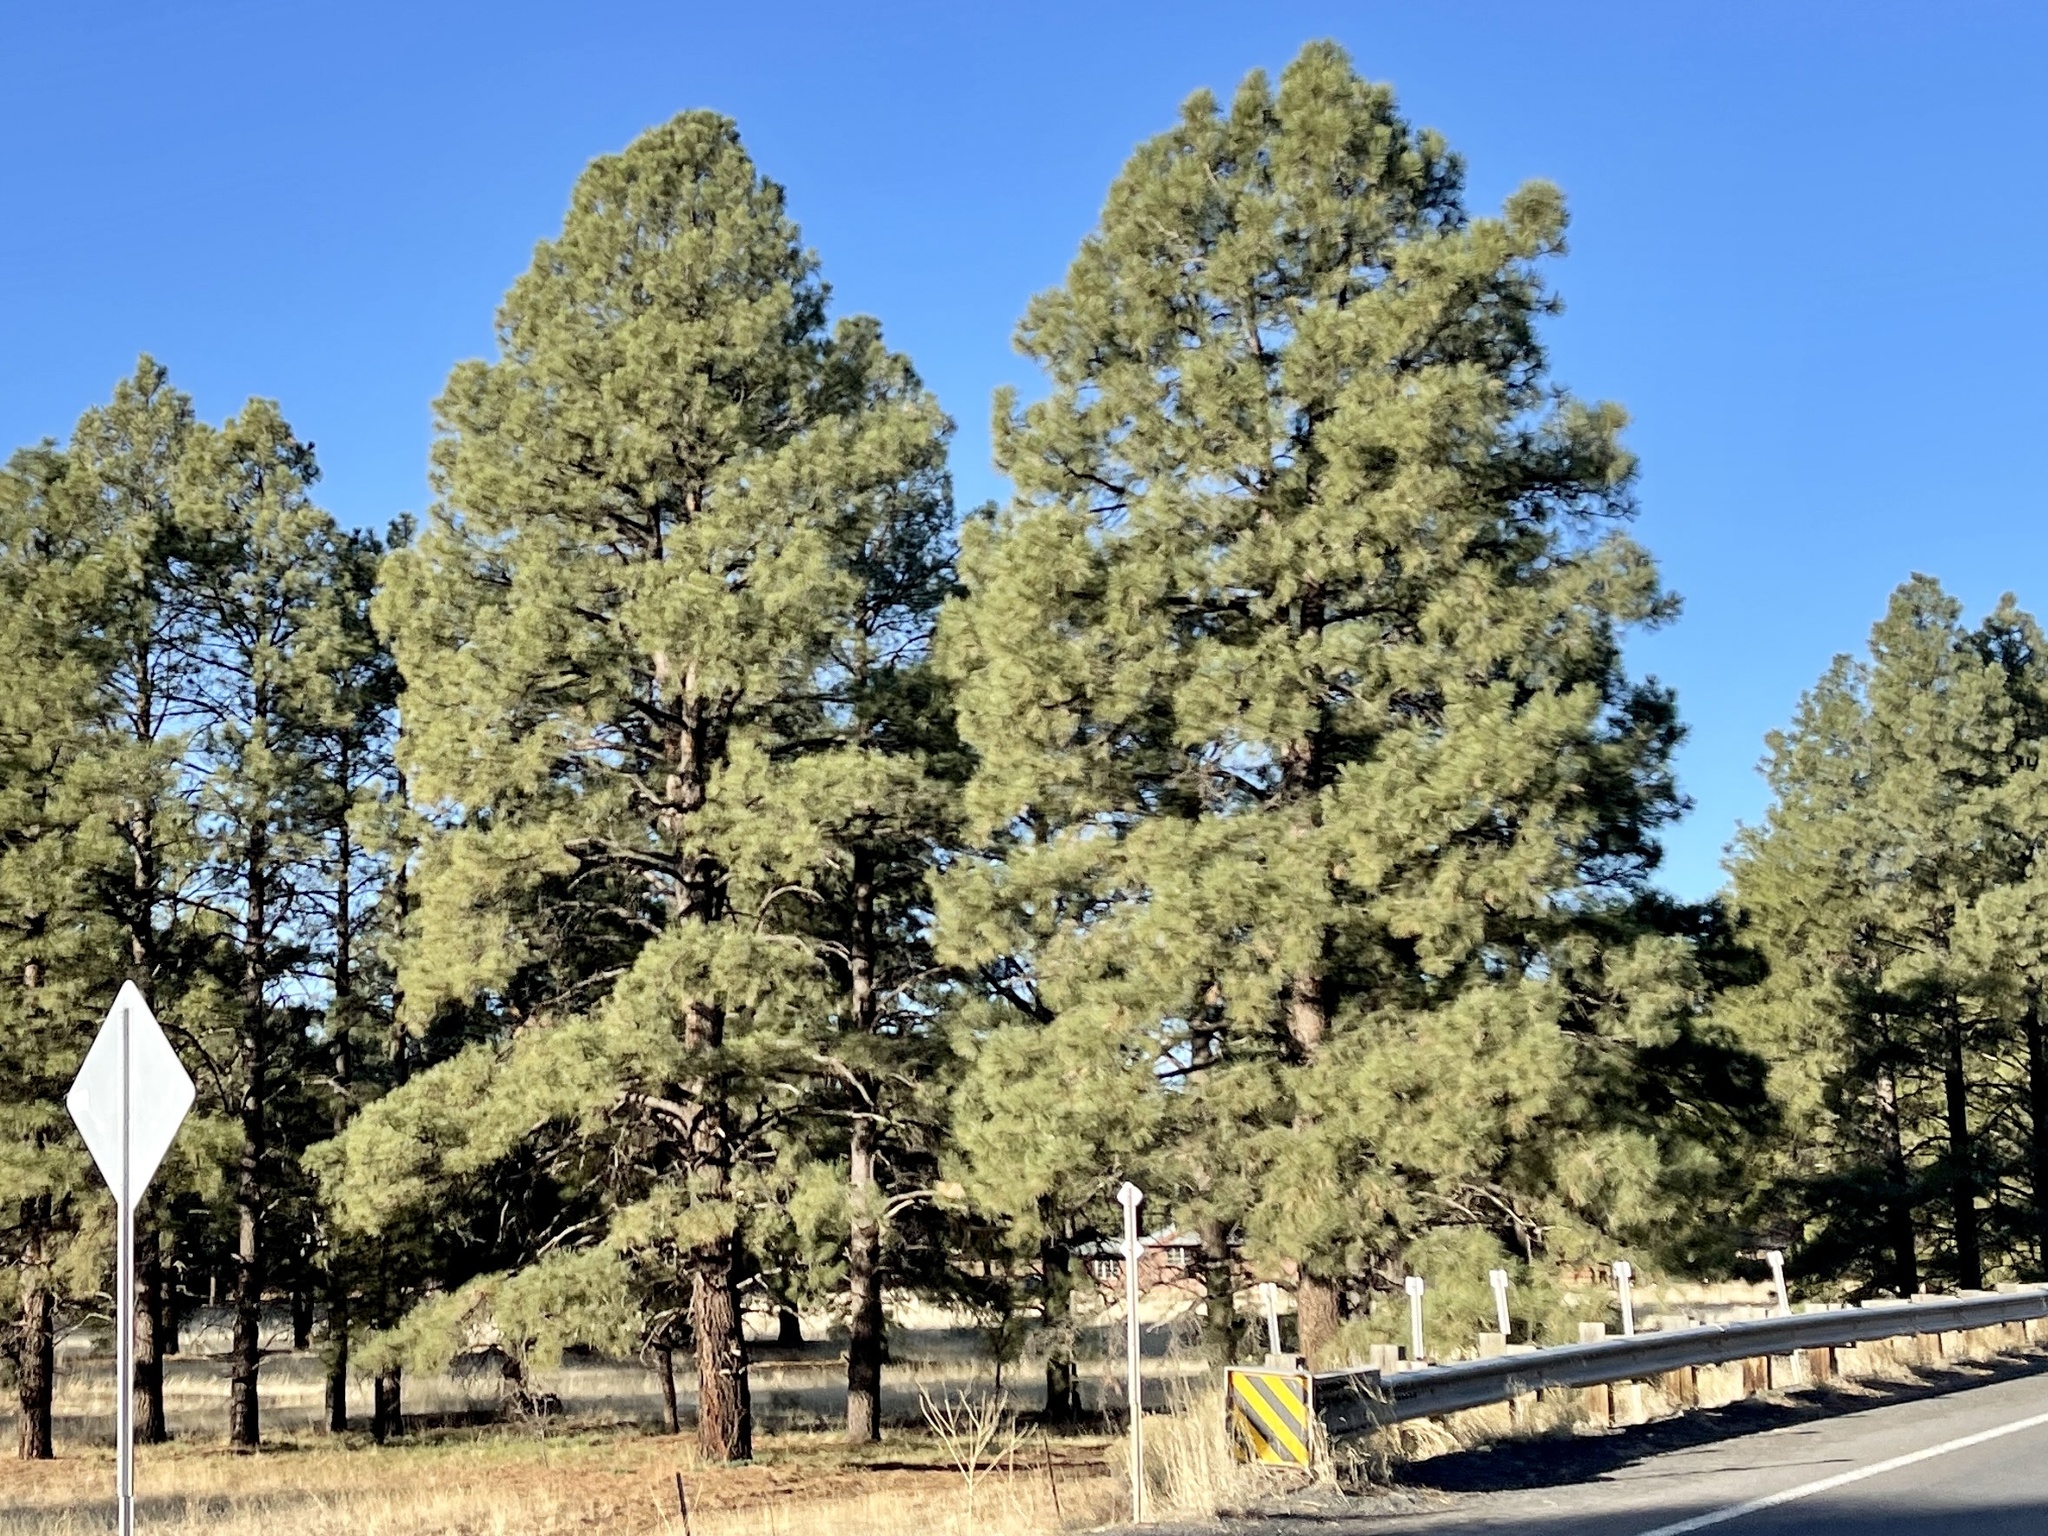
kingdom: Plantae
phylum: Tracheophyta
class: Pinopsida
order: Pinales
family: Pinaceae
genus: Pinus
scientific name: Pinus ponderosa
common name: Western yellow-pine
